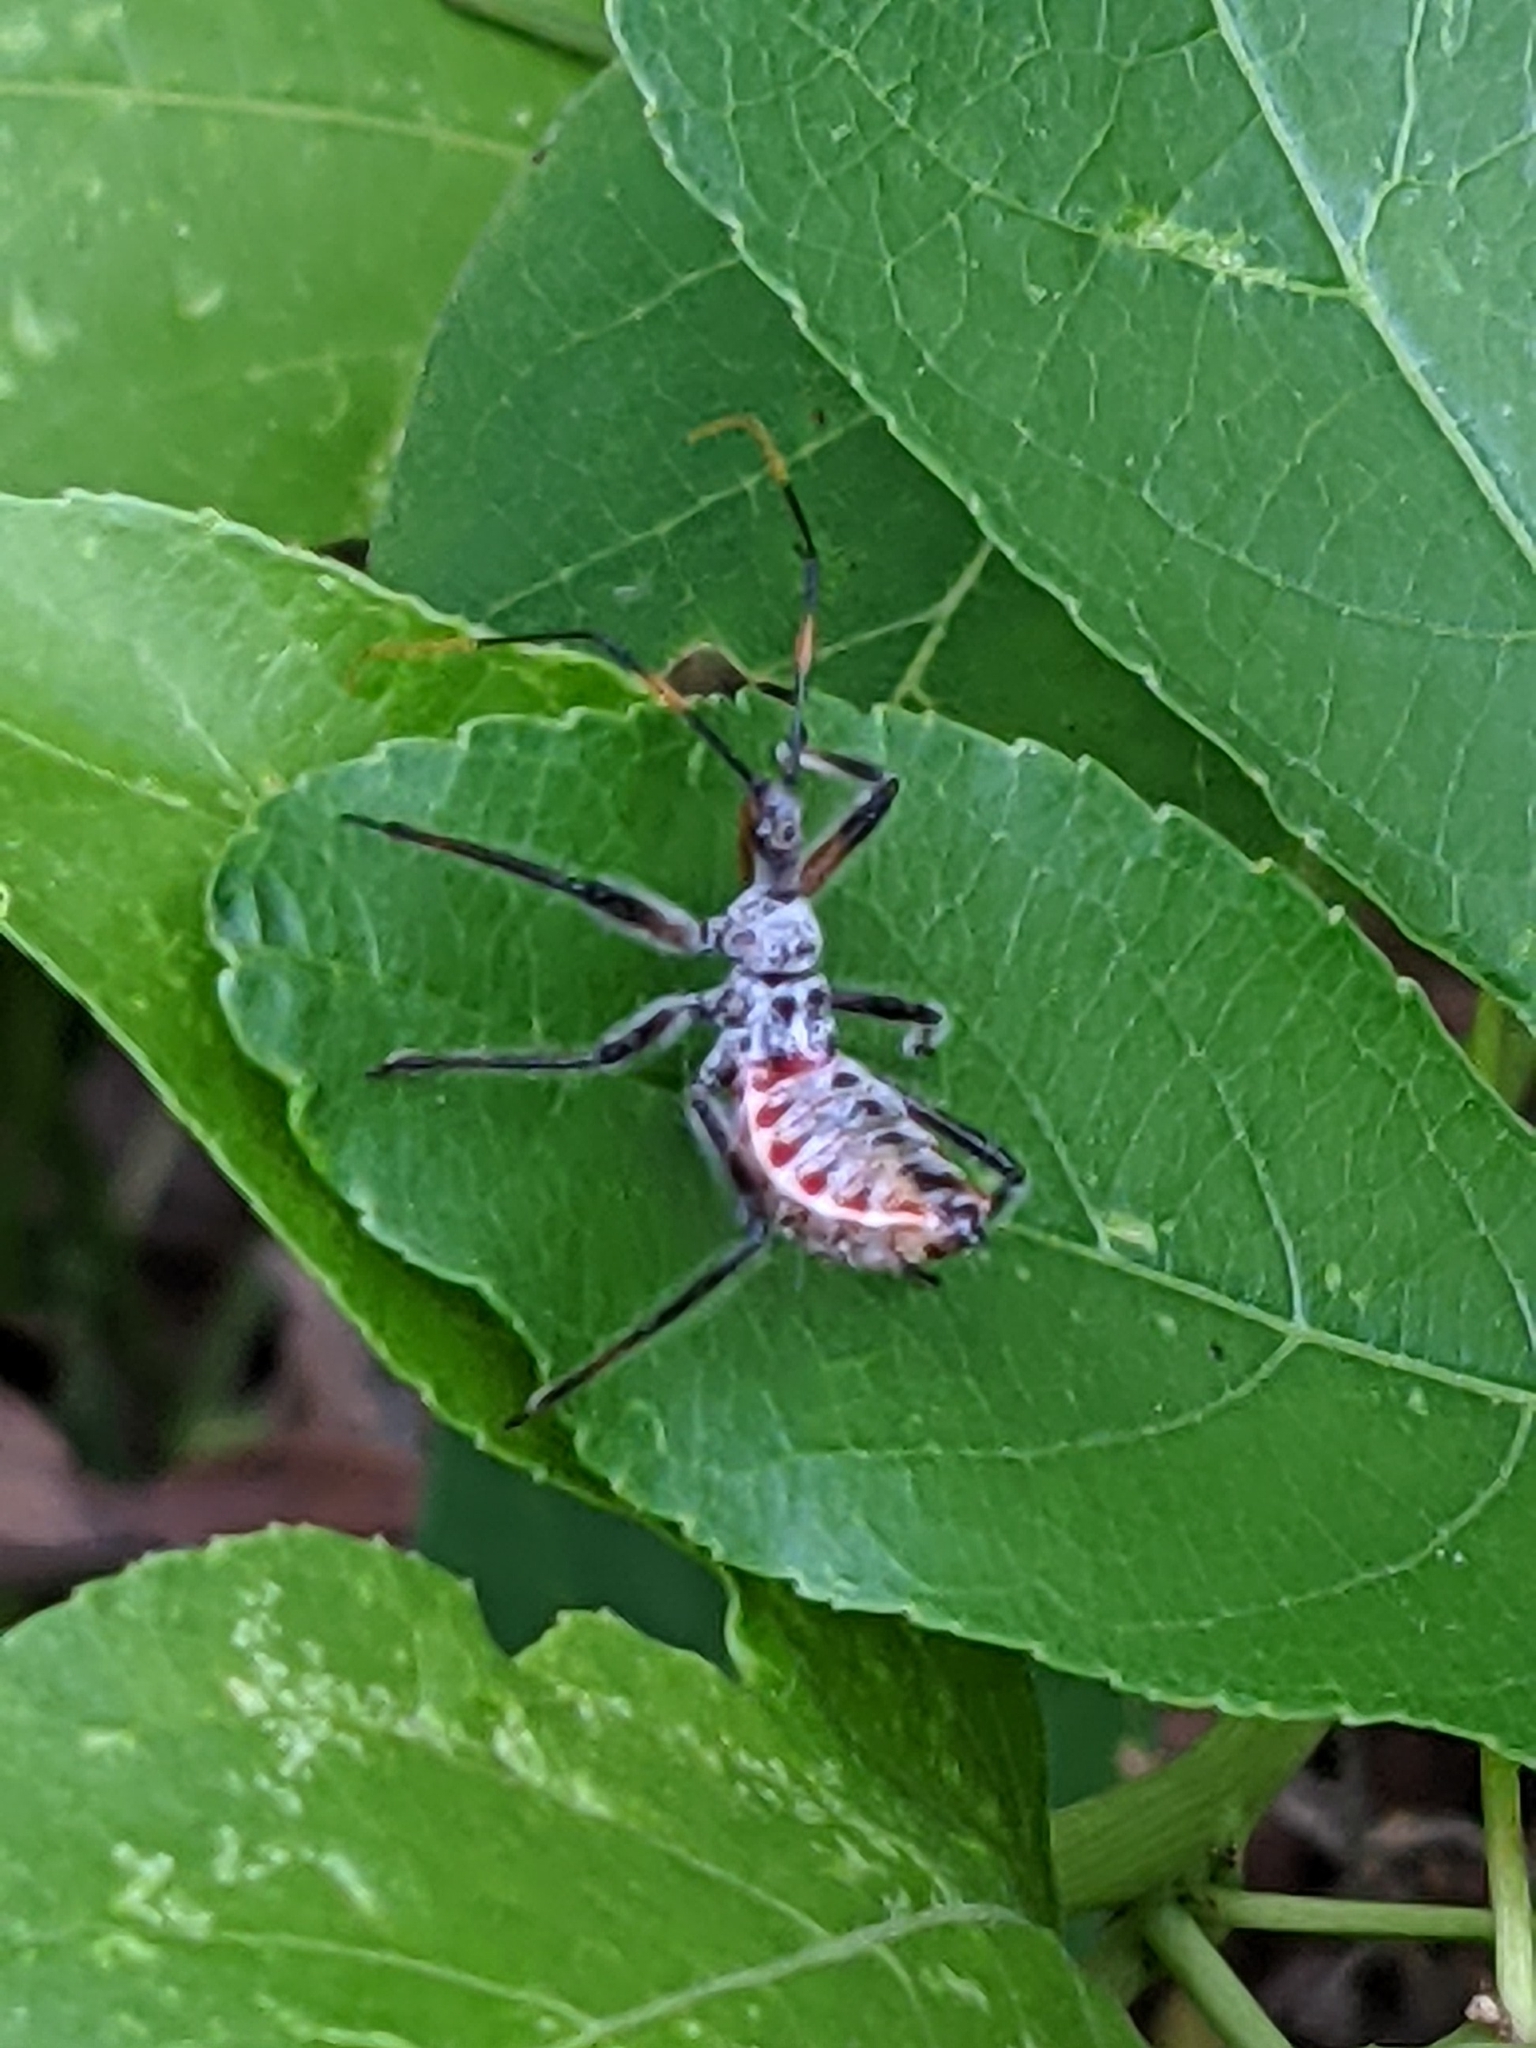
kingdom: Animalia
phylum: Arthropoda
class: Insecta
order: Hemiptera
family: Reduviidae
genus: Arilus
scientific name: Arilus cristatus
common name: North american wheel bug
